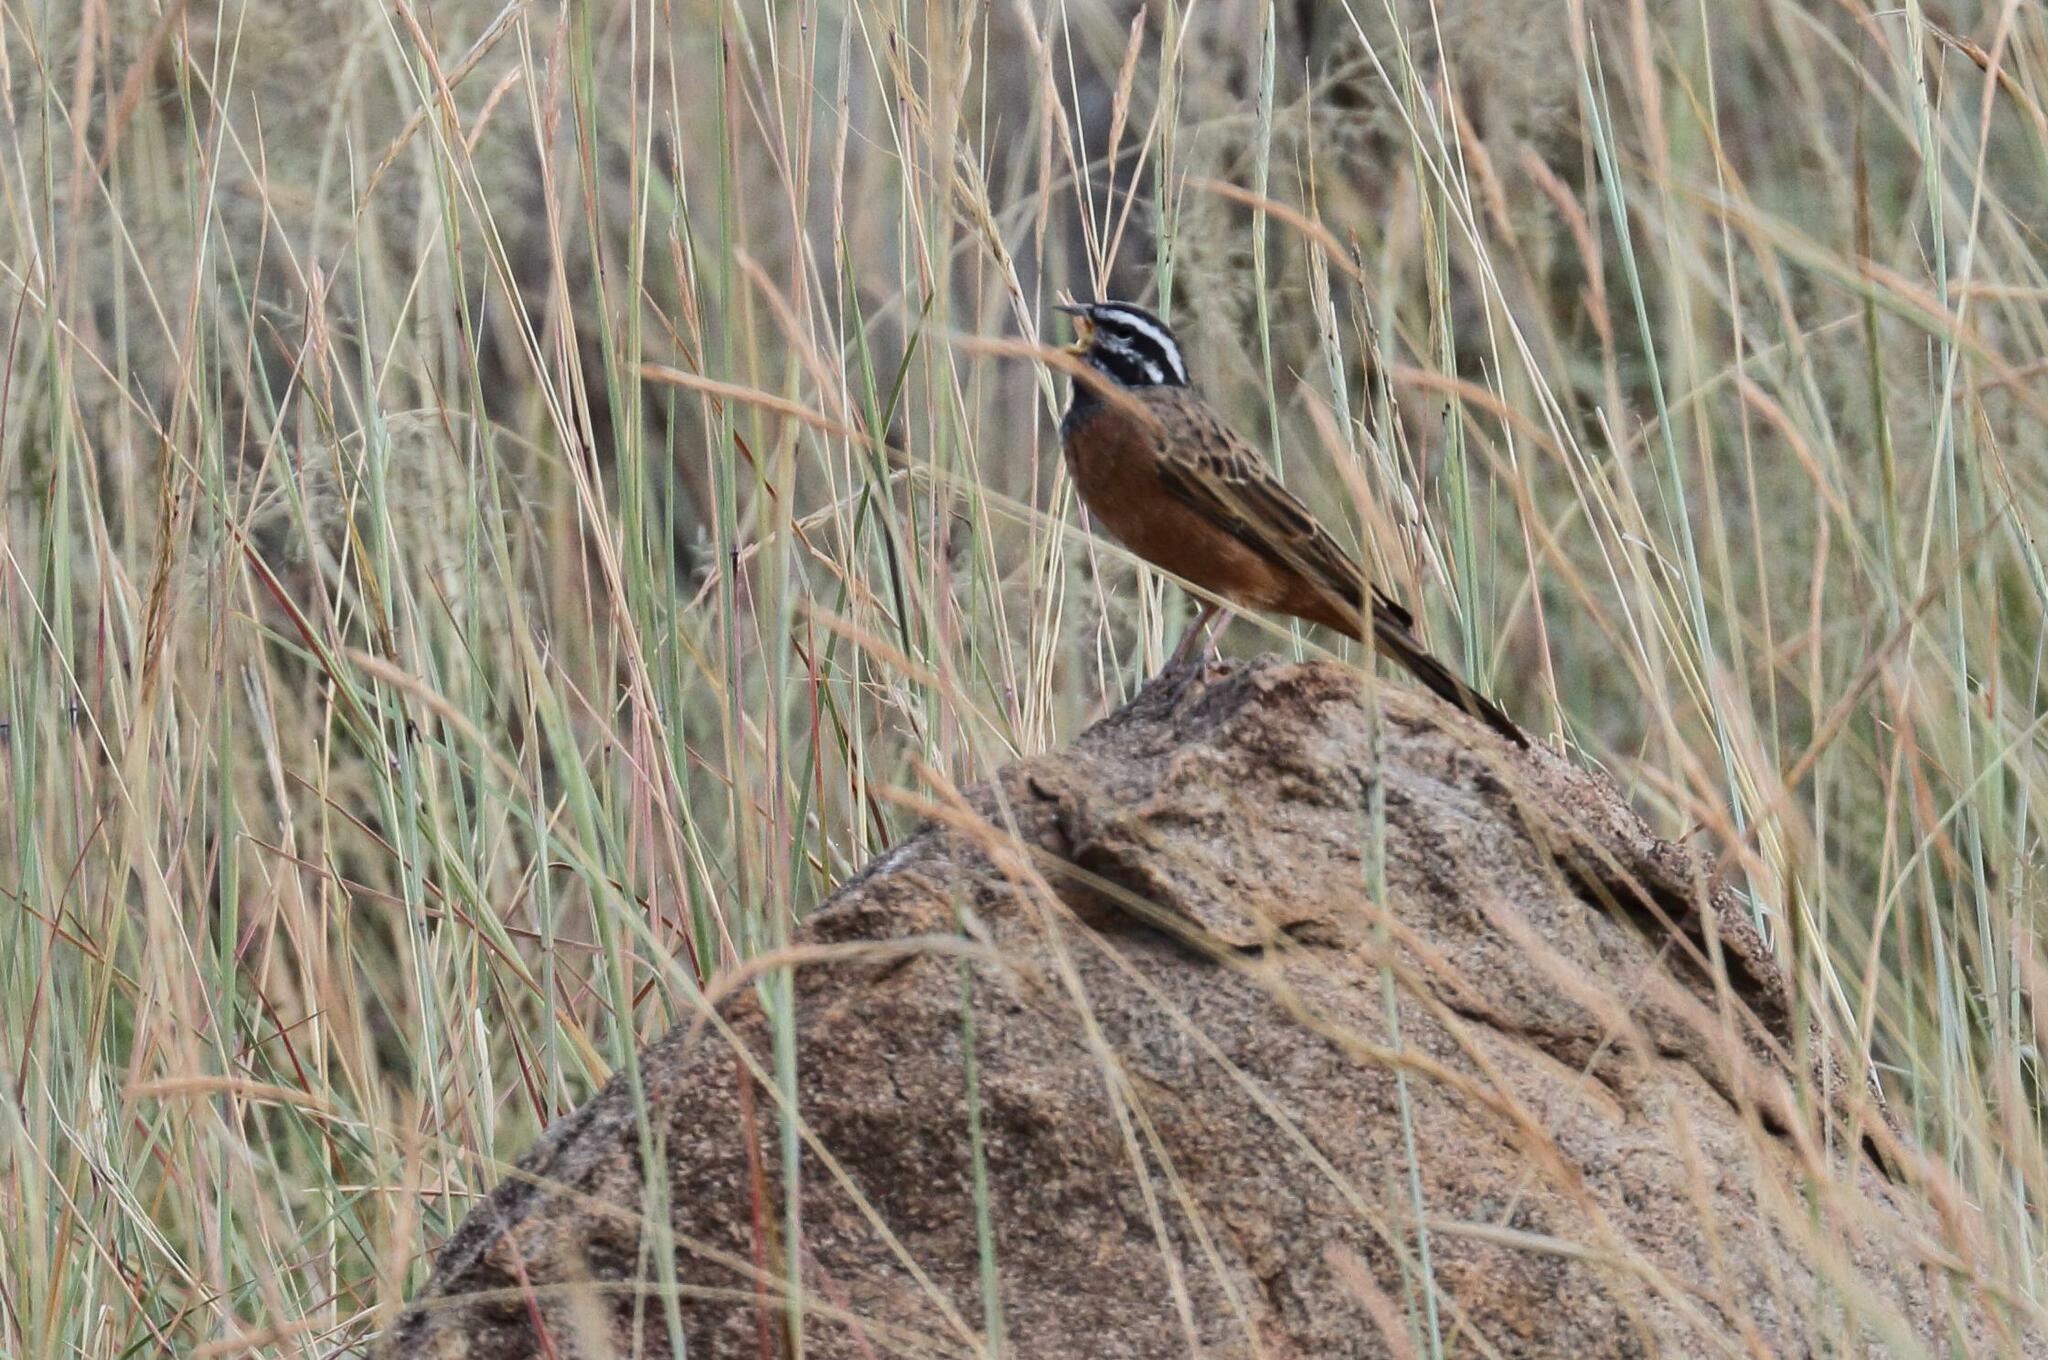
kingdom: Animalia
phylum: Chordata
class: Aves
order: Passeriformes
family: Emberizidae
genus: Emberiza
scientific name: Emberiza tahapisi
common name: Cinnamon-breasted bunting
